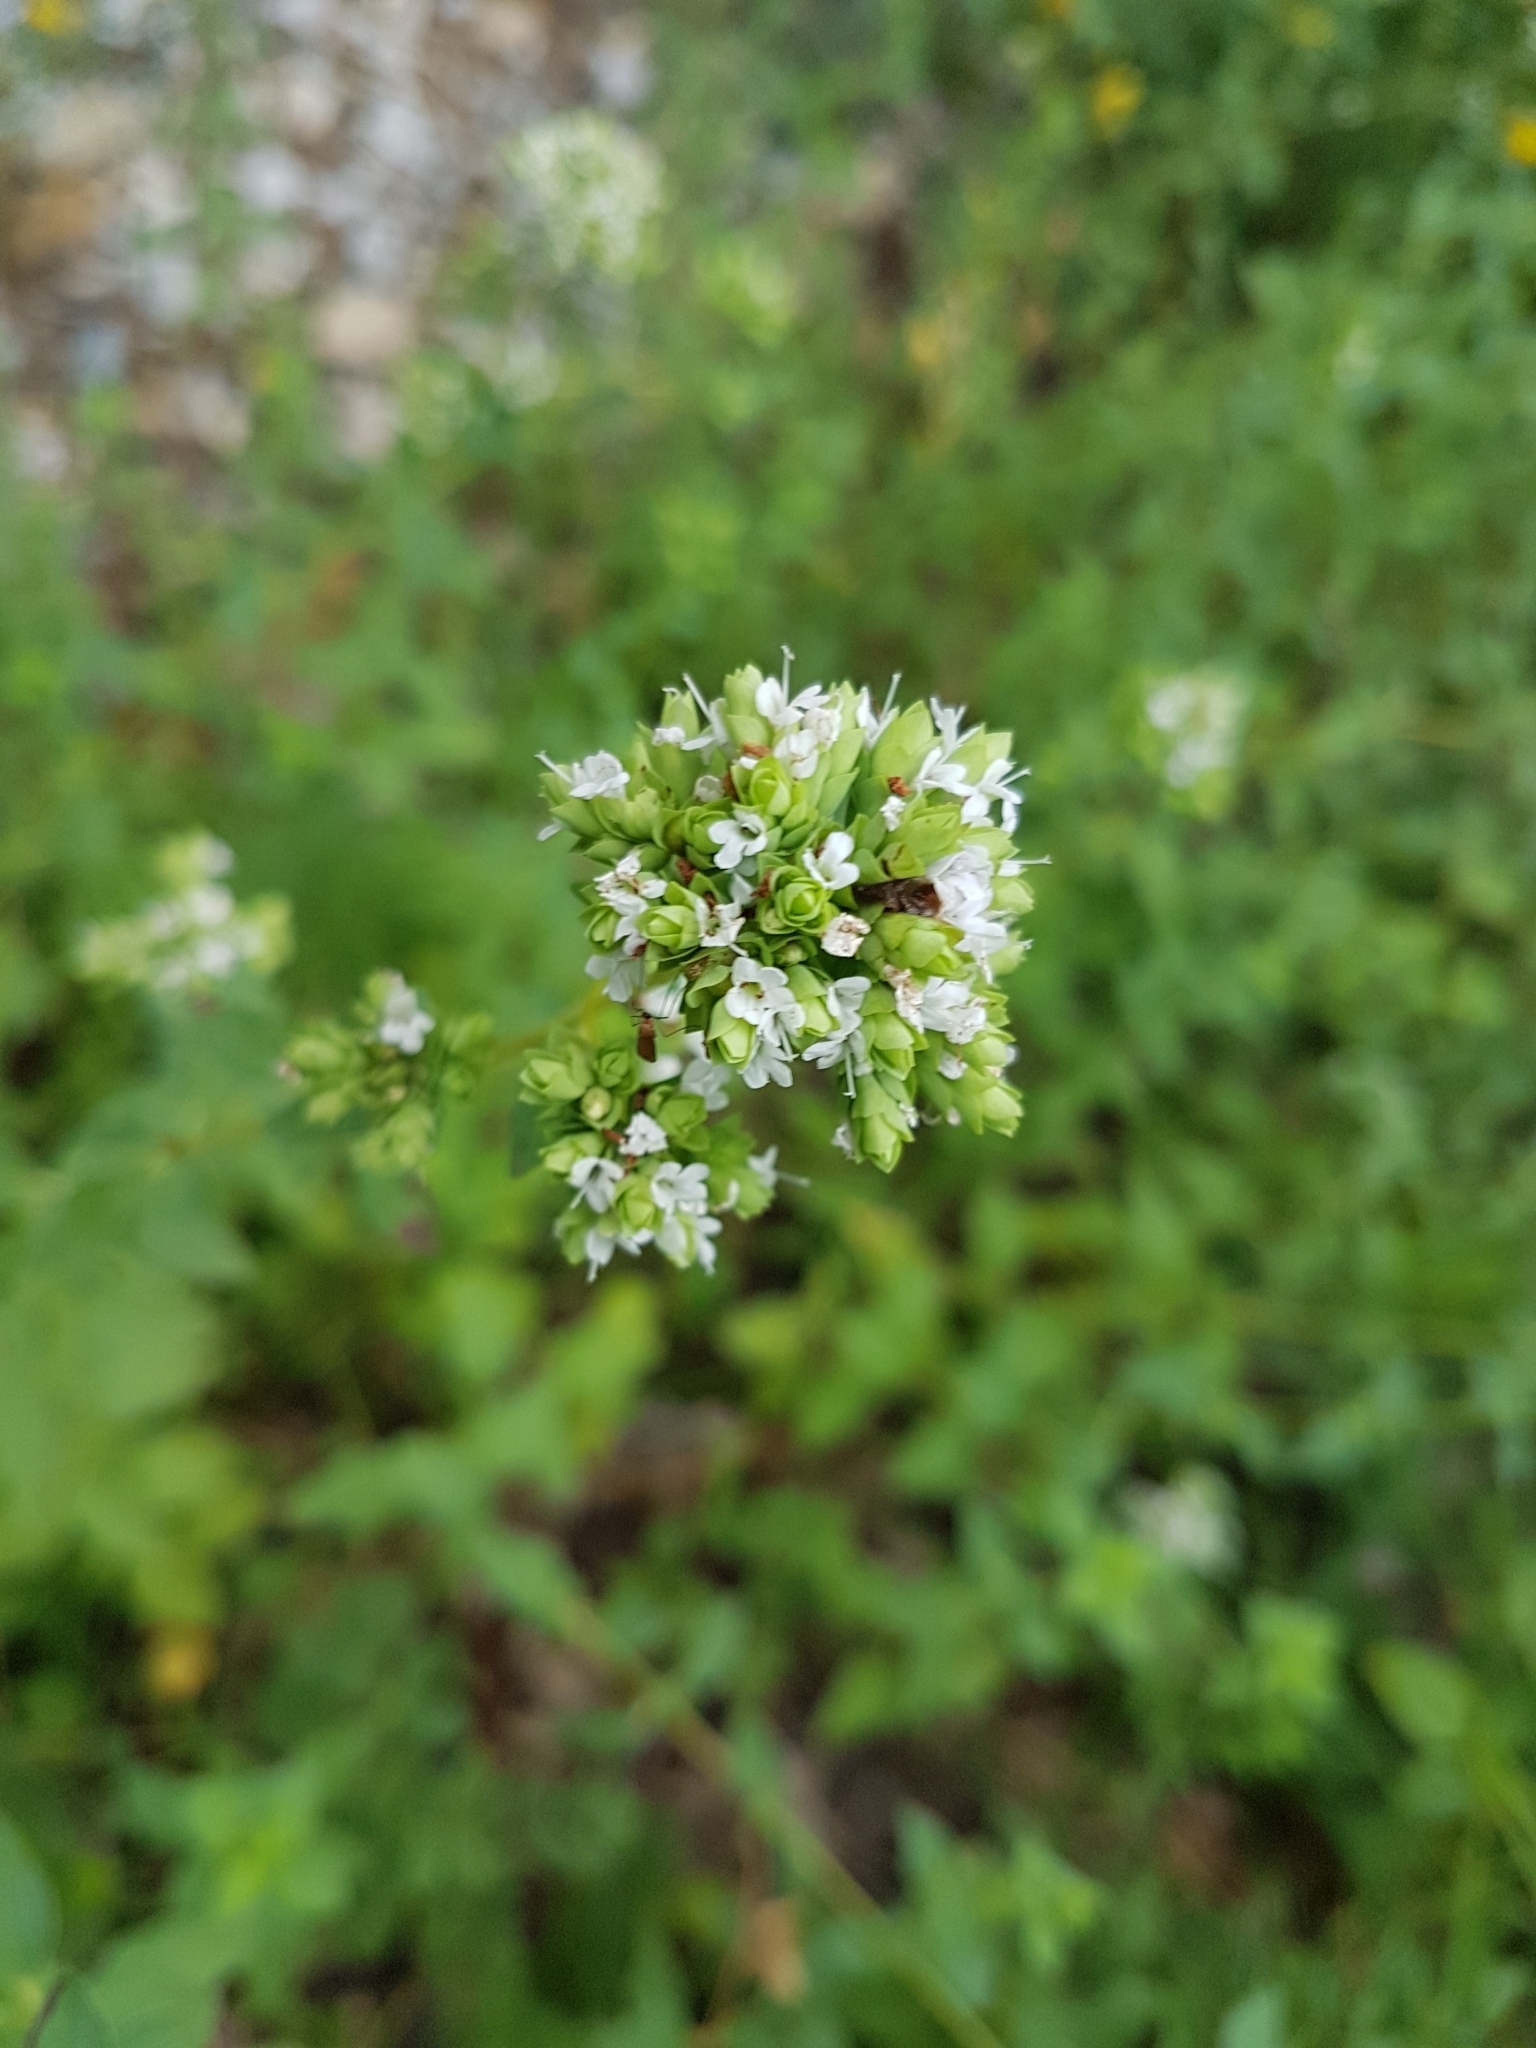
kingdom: Plantae
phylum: Tracheophyta
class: Magnoliopsida
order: Lamiales
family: Lamiaceae
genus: Origanum
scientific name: Origanum vulgare
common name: Wild marjoram
